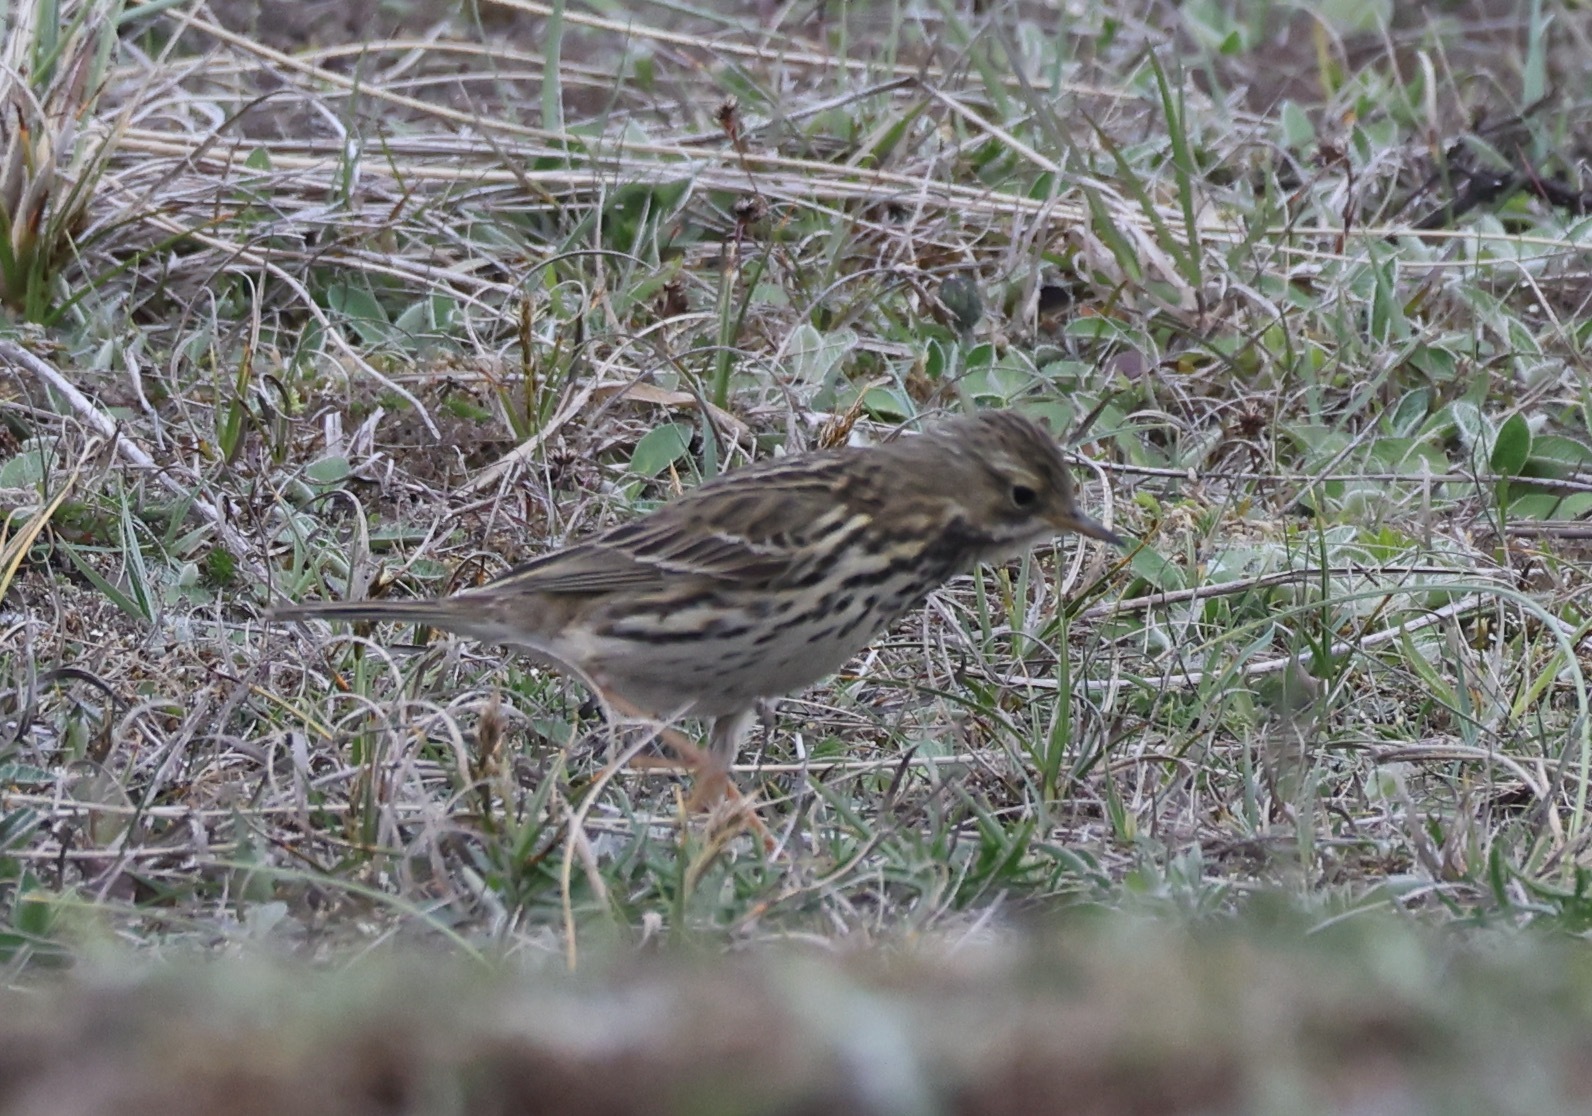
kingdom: Animalia
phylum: Chordata
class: Aves
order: Passeriformes
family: Motacillidae
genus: Anthus
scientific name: Anthus pratensis
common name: Meadow pipit
